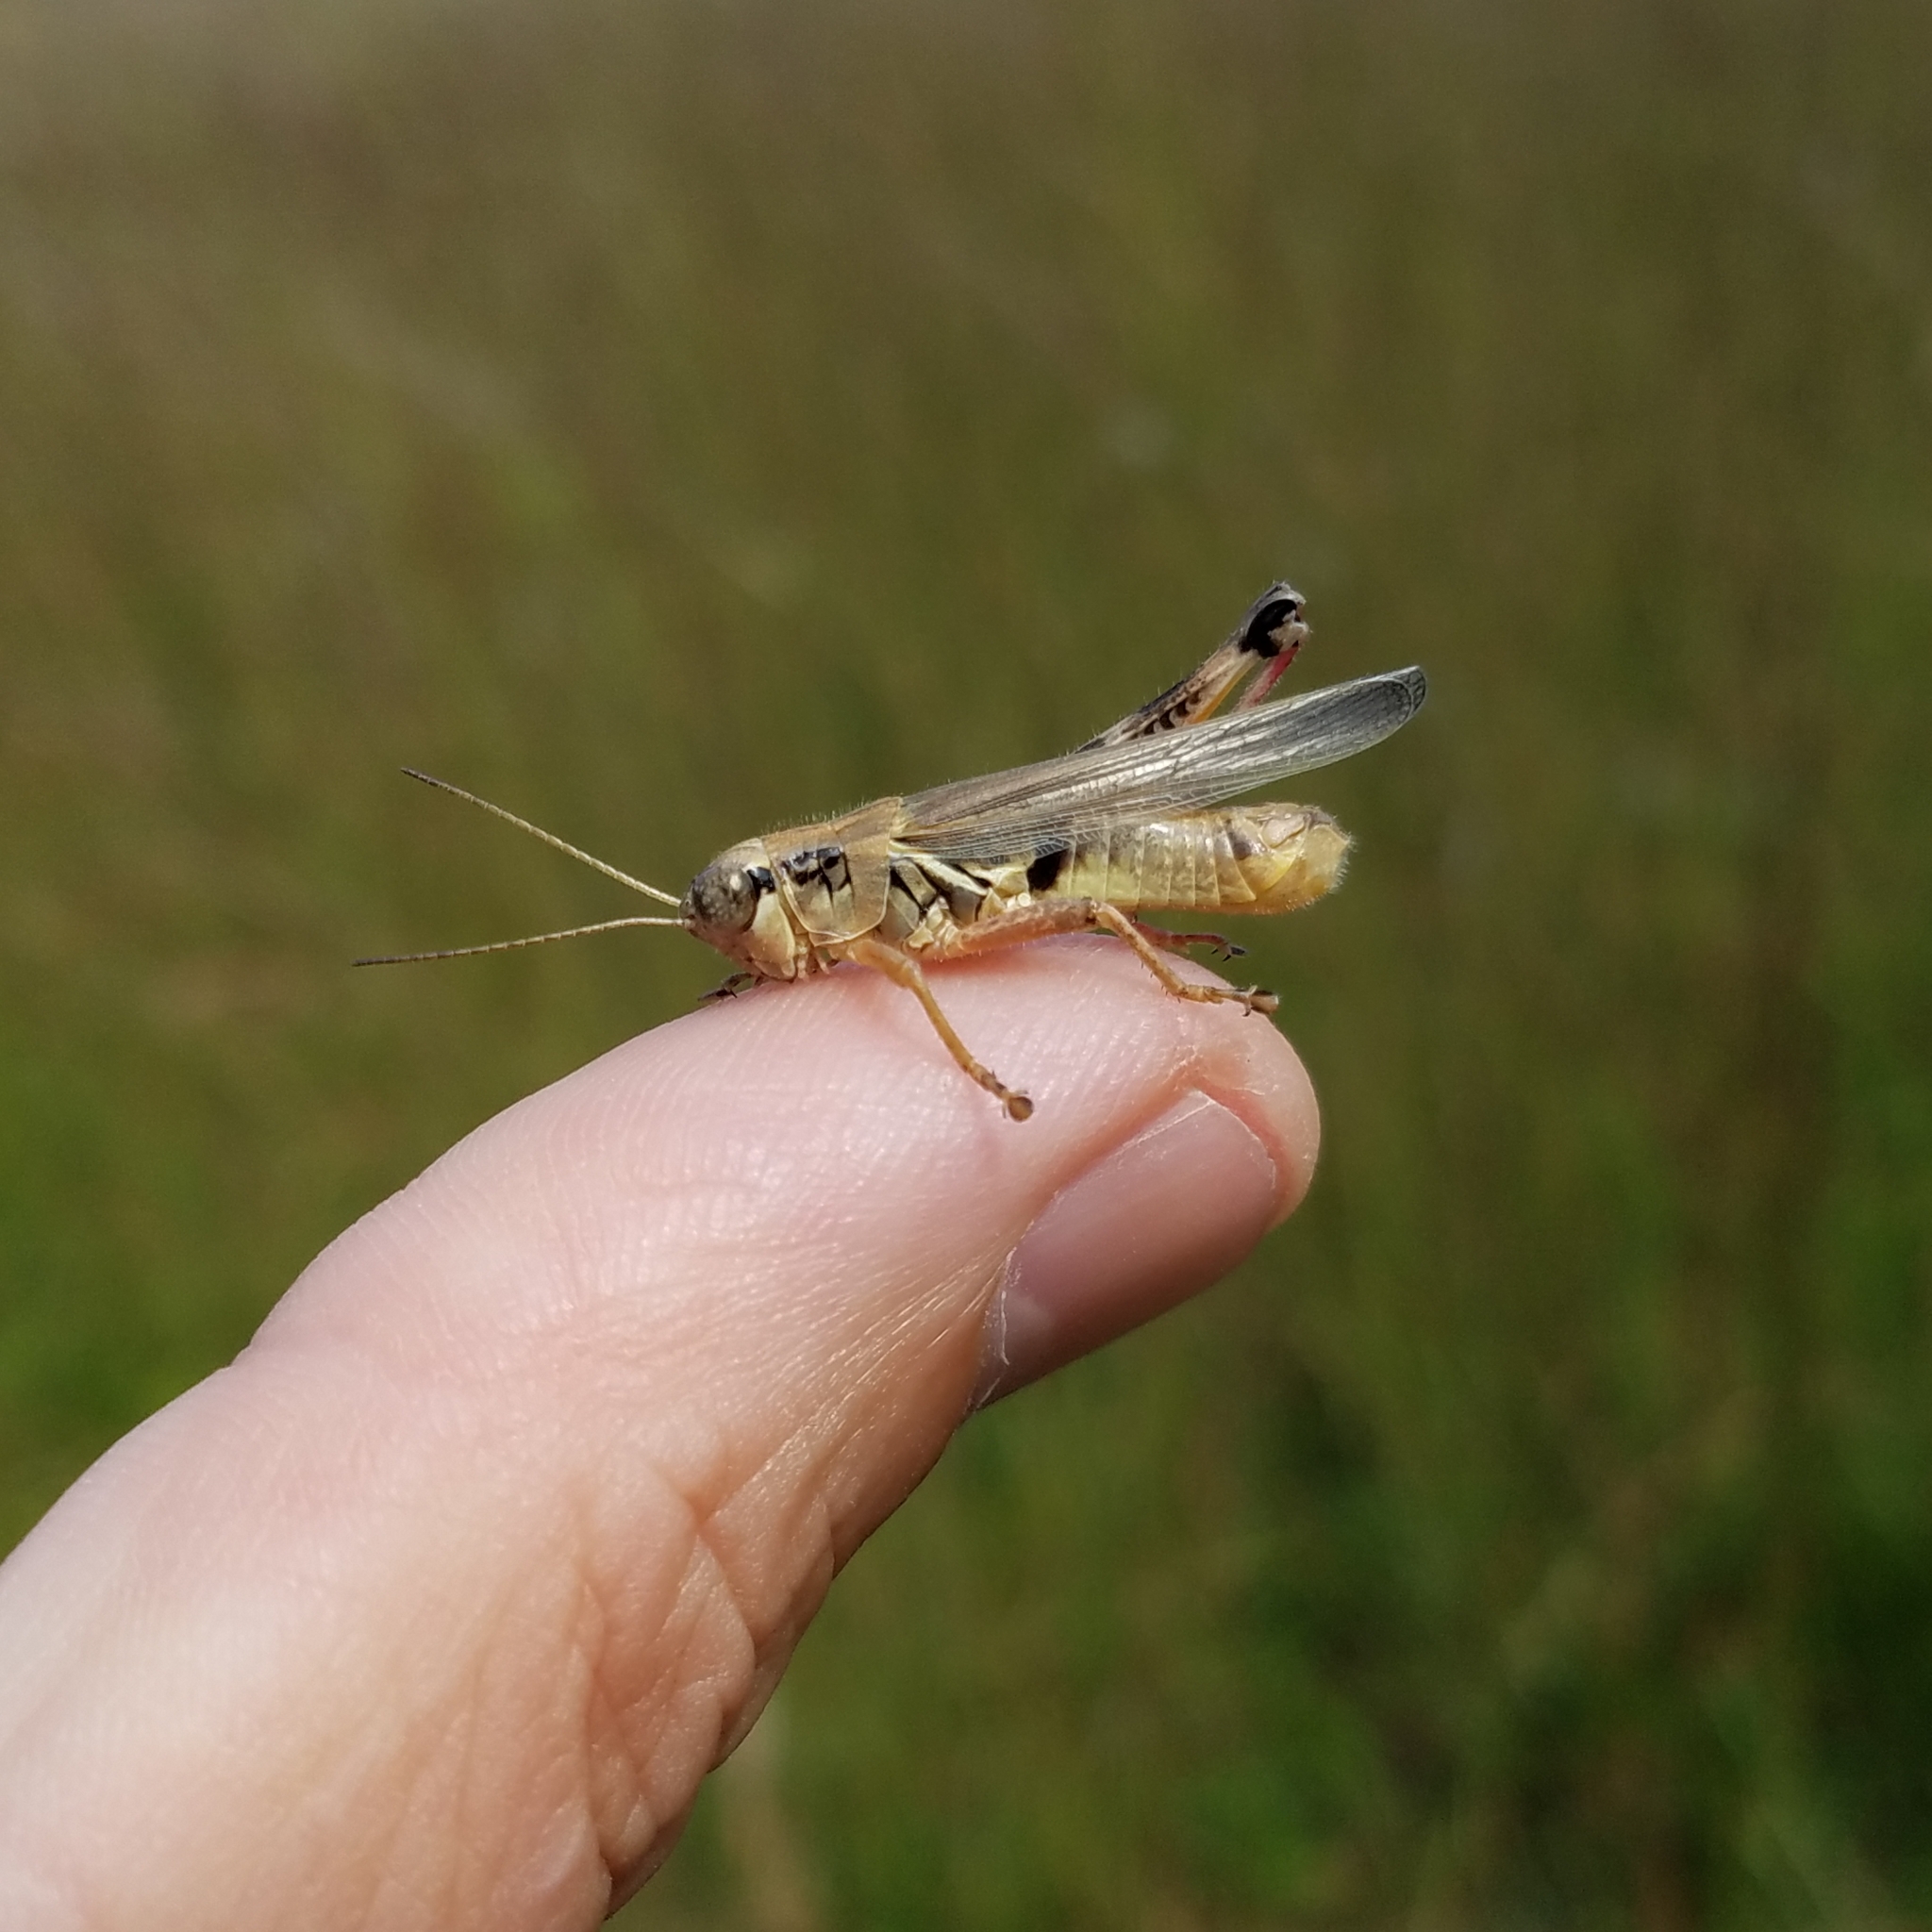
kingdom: Animalia
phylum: Arthropoda
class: Insecta
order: Orthoptera
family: Acrididae
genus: Melanoplus
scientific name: Melanoplus femurrubrum
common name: Red-legged grasshopper
